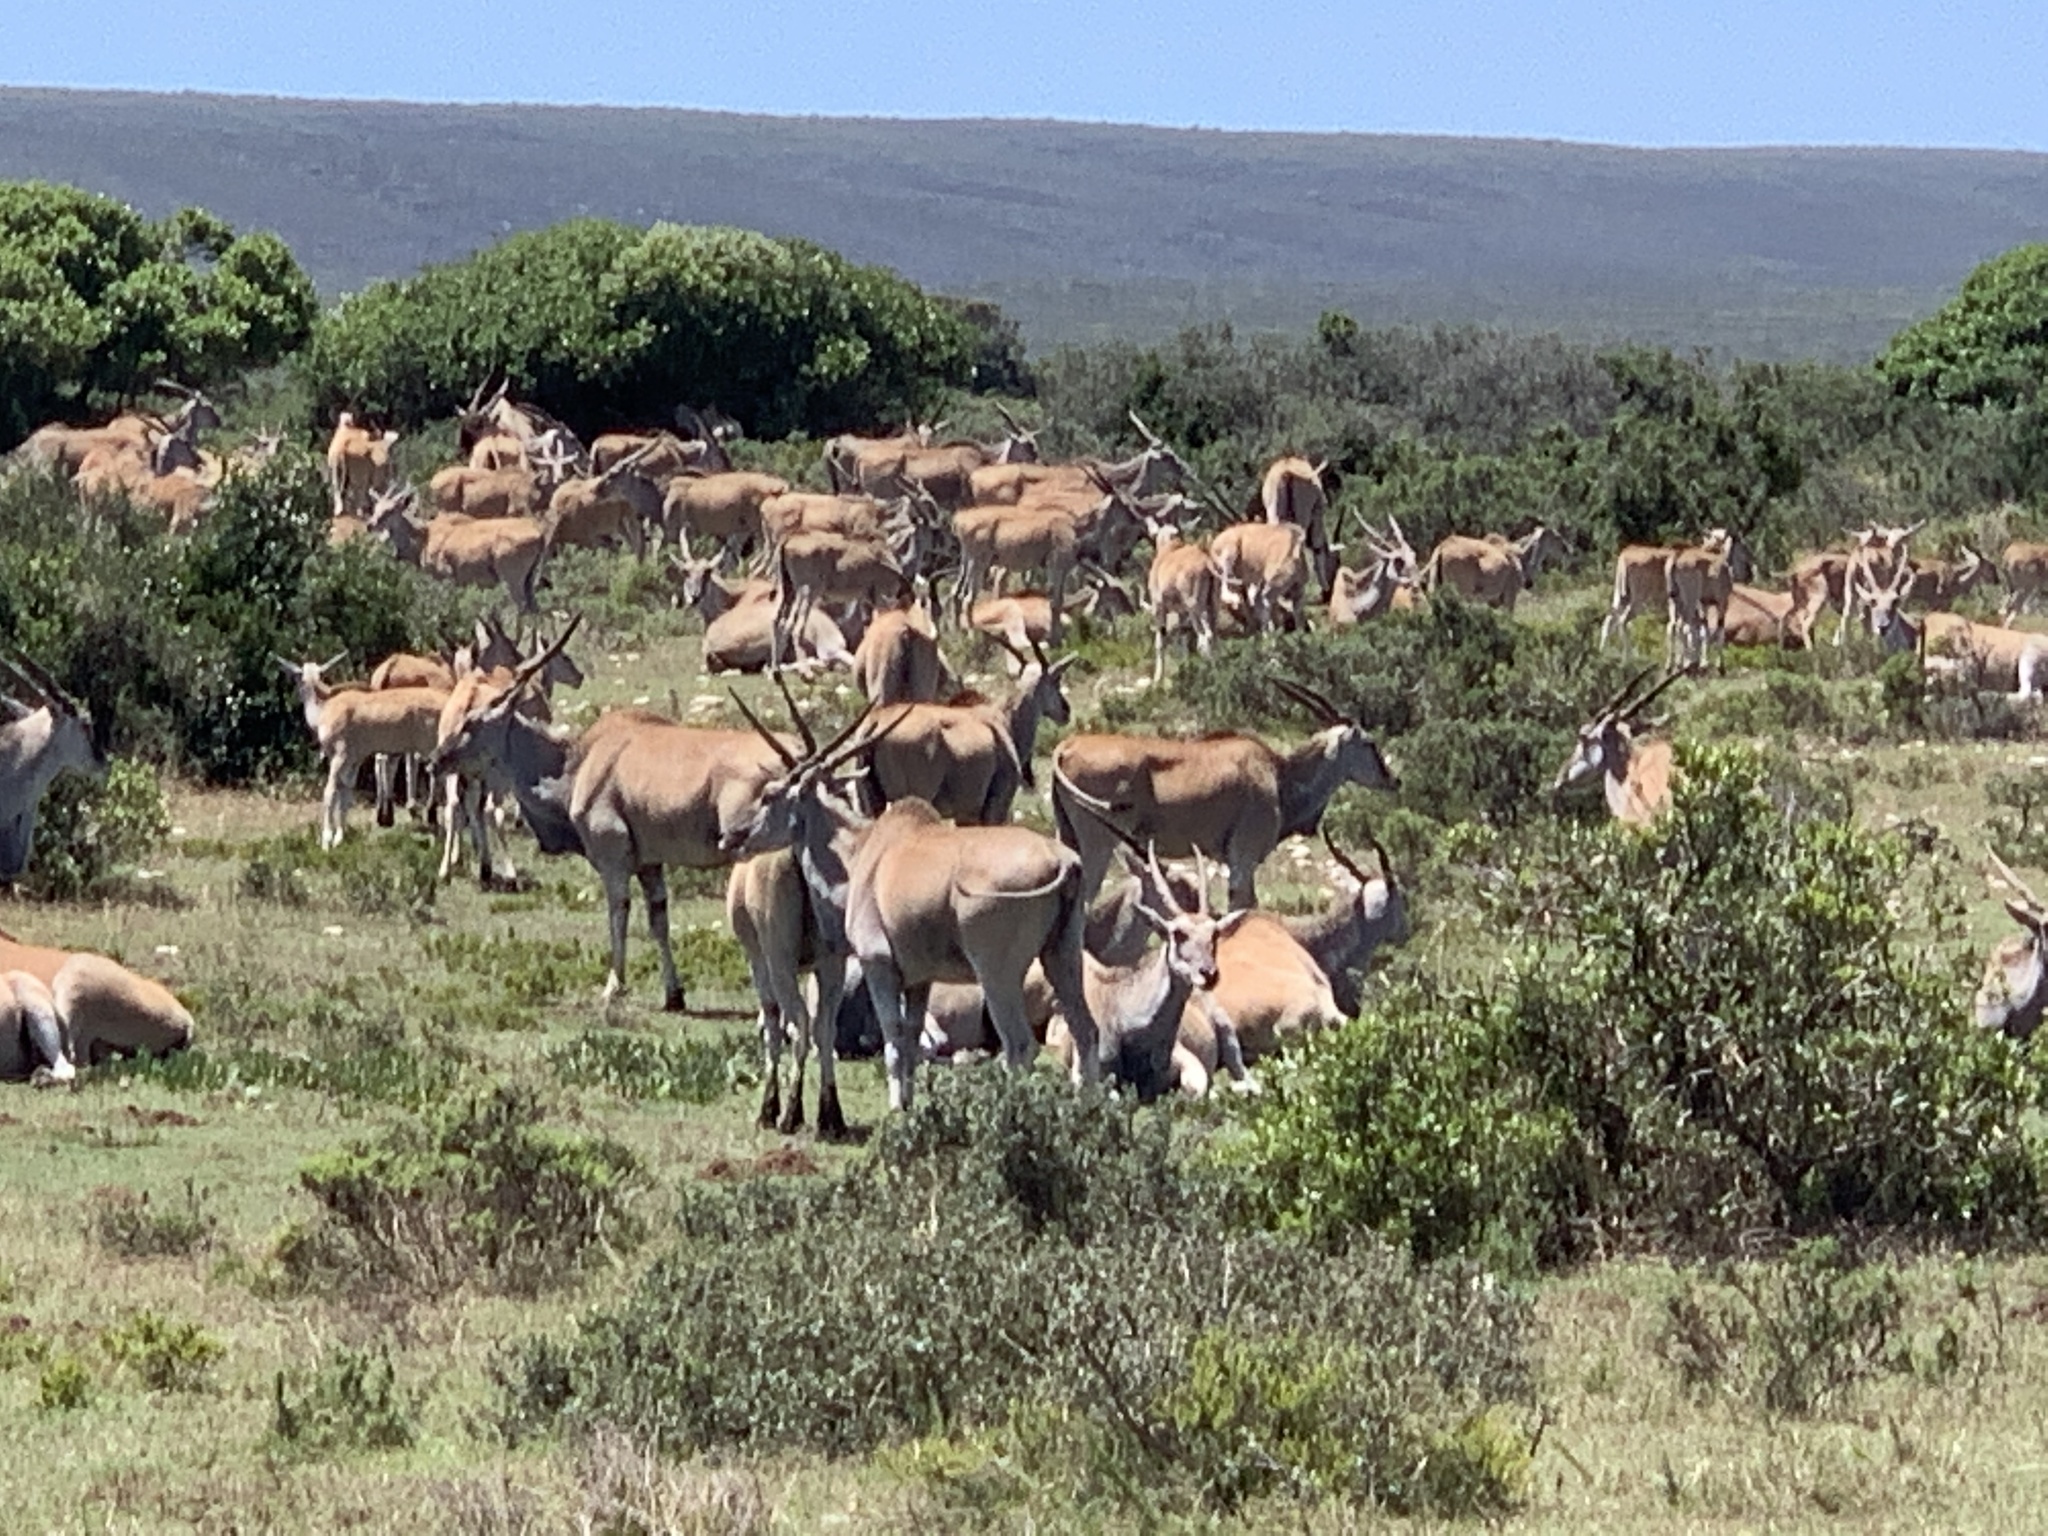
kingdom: Animalia
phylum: Chordata
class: Mammalia
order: Artiodactyla
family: Bovidae
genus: Taurotragus
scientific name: Taurotragus oryx
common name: Common eland
